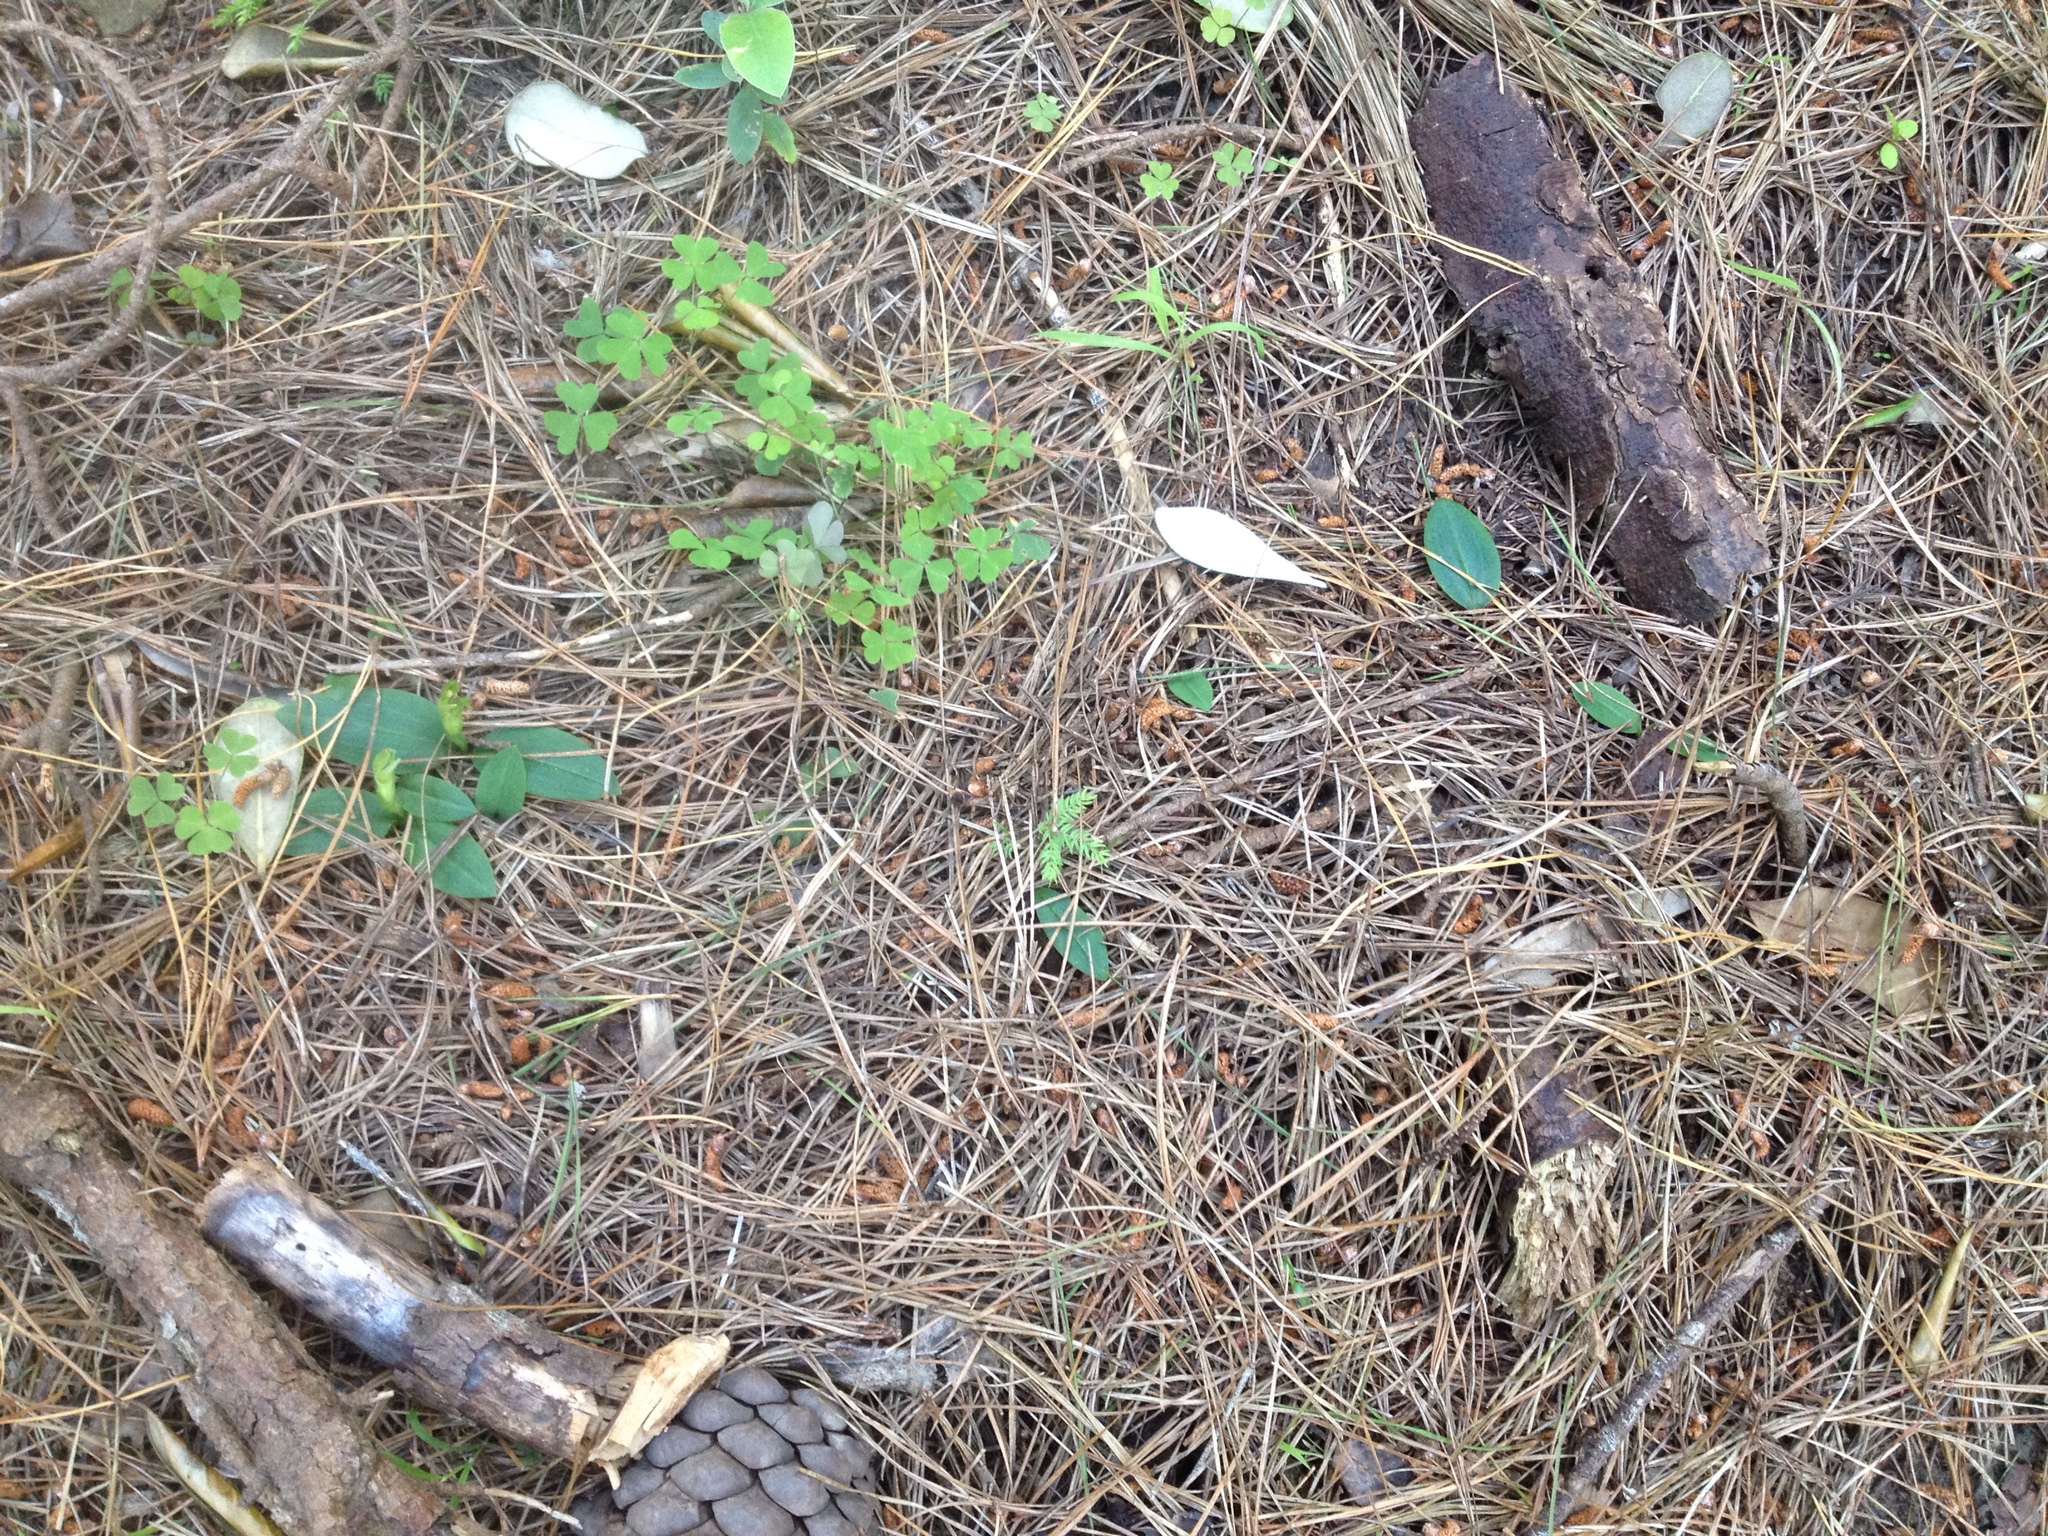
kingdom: Plantae
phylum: Tracheophyta
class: Liliopsida
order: Asparagales
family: Orchidaceae
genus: Chiloglottis
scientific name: Chiloglottis cornuta
